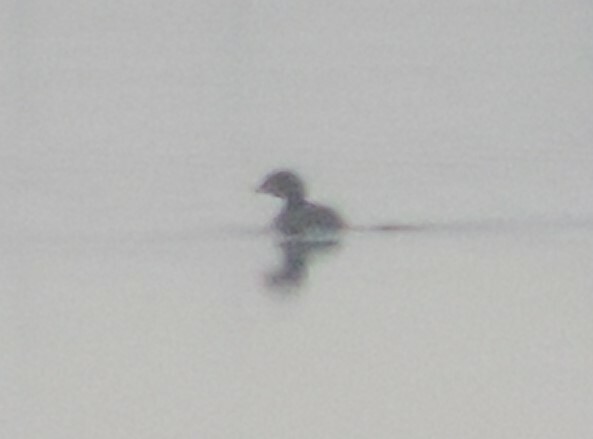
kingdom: Animalia
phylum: Chordata
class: Aves
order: Podicipediformes
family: Podicipedidae
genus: Podilymbus
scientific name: Podilymbus podiceps
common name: Pied-billed grebe
